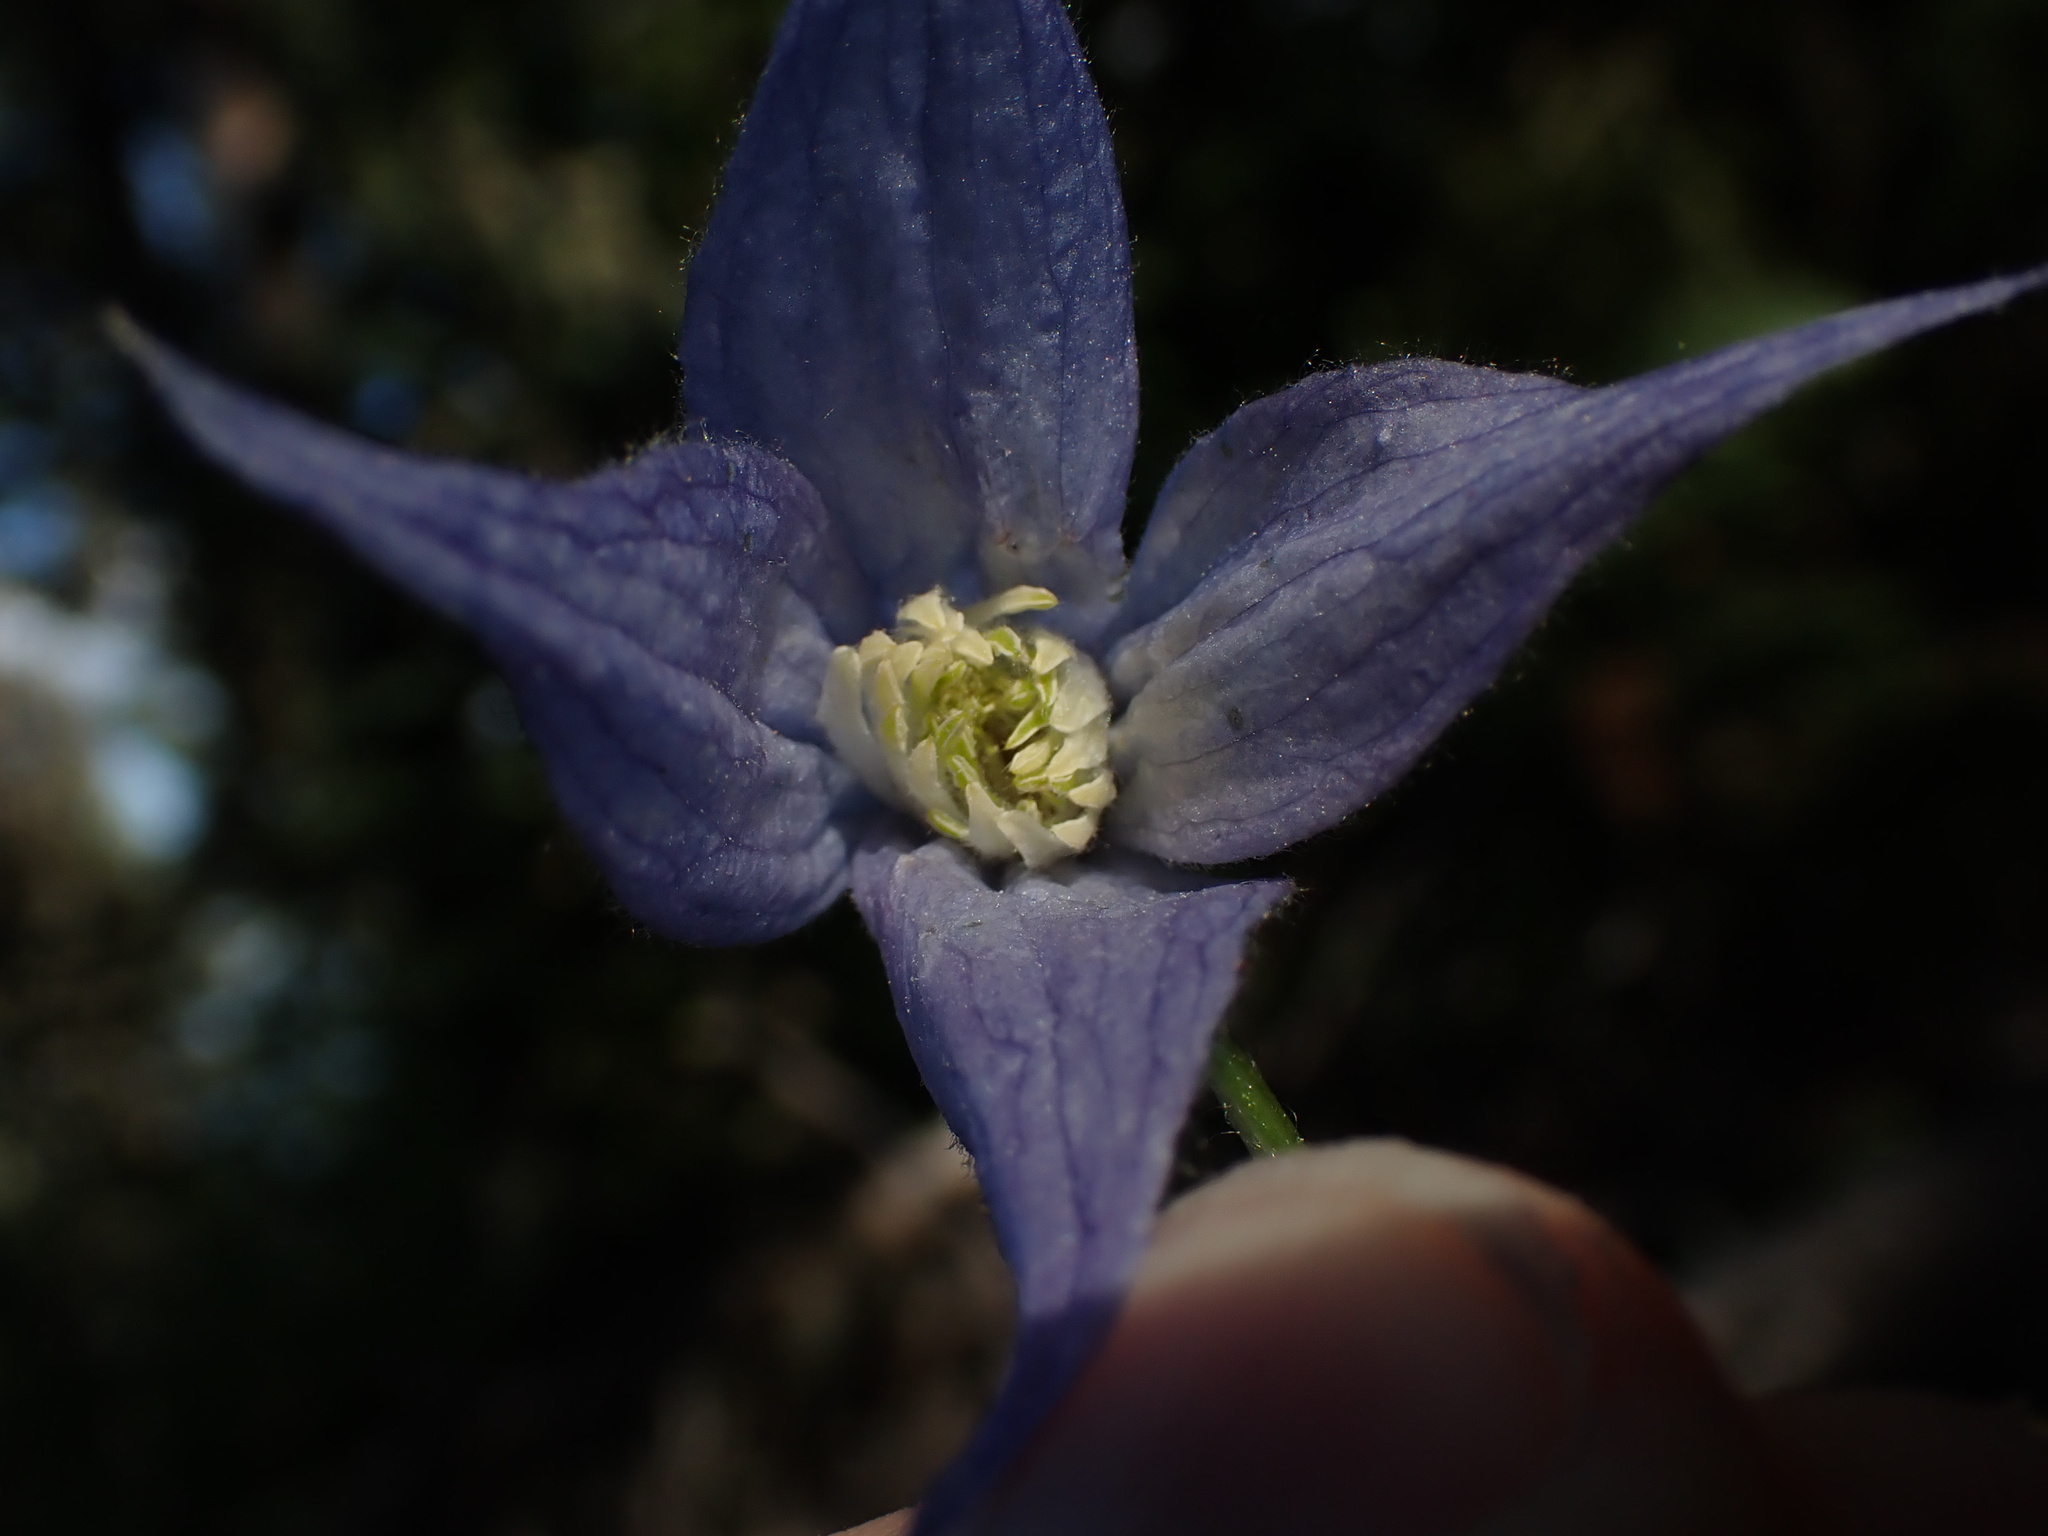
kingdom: Plantae
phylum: Tracheophyta
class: Magnoliopsida
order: Ranunculales
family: Ranunculaceae
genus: Clematis
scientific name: Clematis occidentalis
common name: Purple clematis
